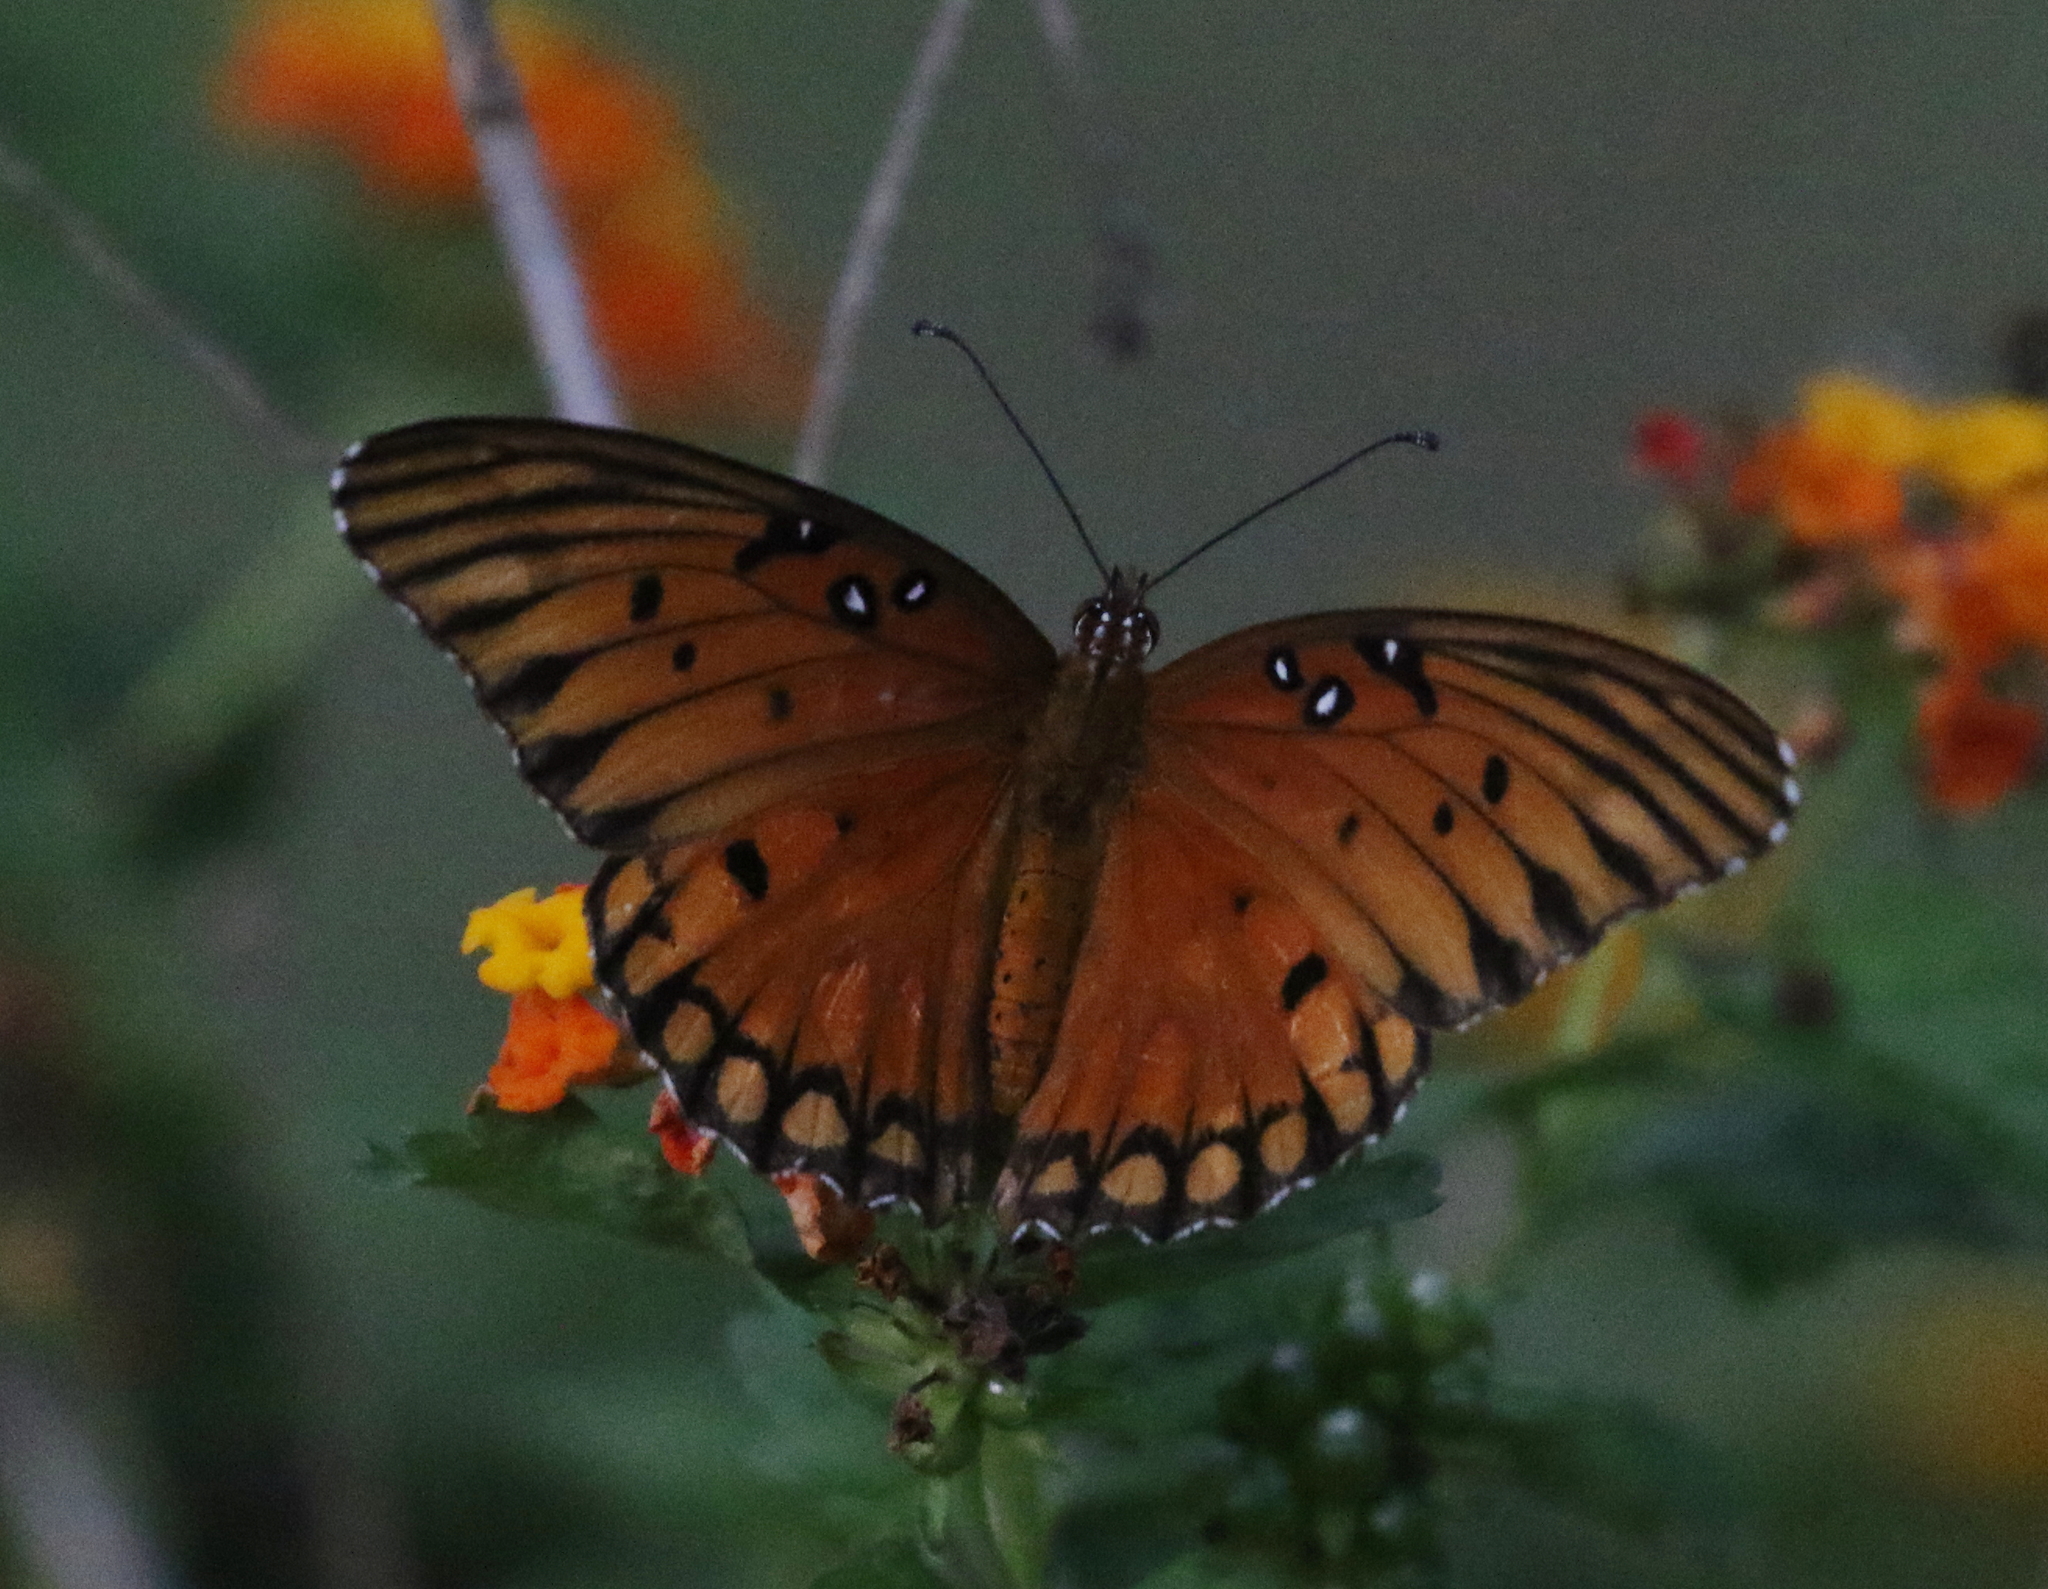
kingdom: Animalia
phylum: Arthropoda
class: Insecta
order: Lepidoptera
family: Nymphalidae
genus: Dione
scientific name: Dione vanillae
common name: Gulf fritillary
